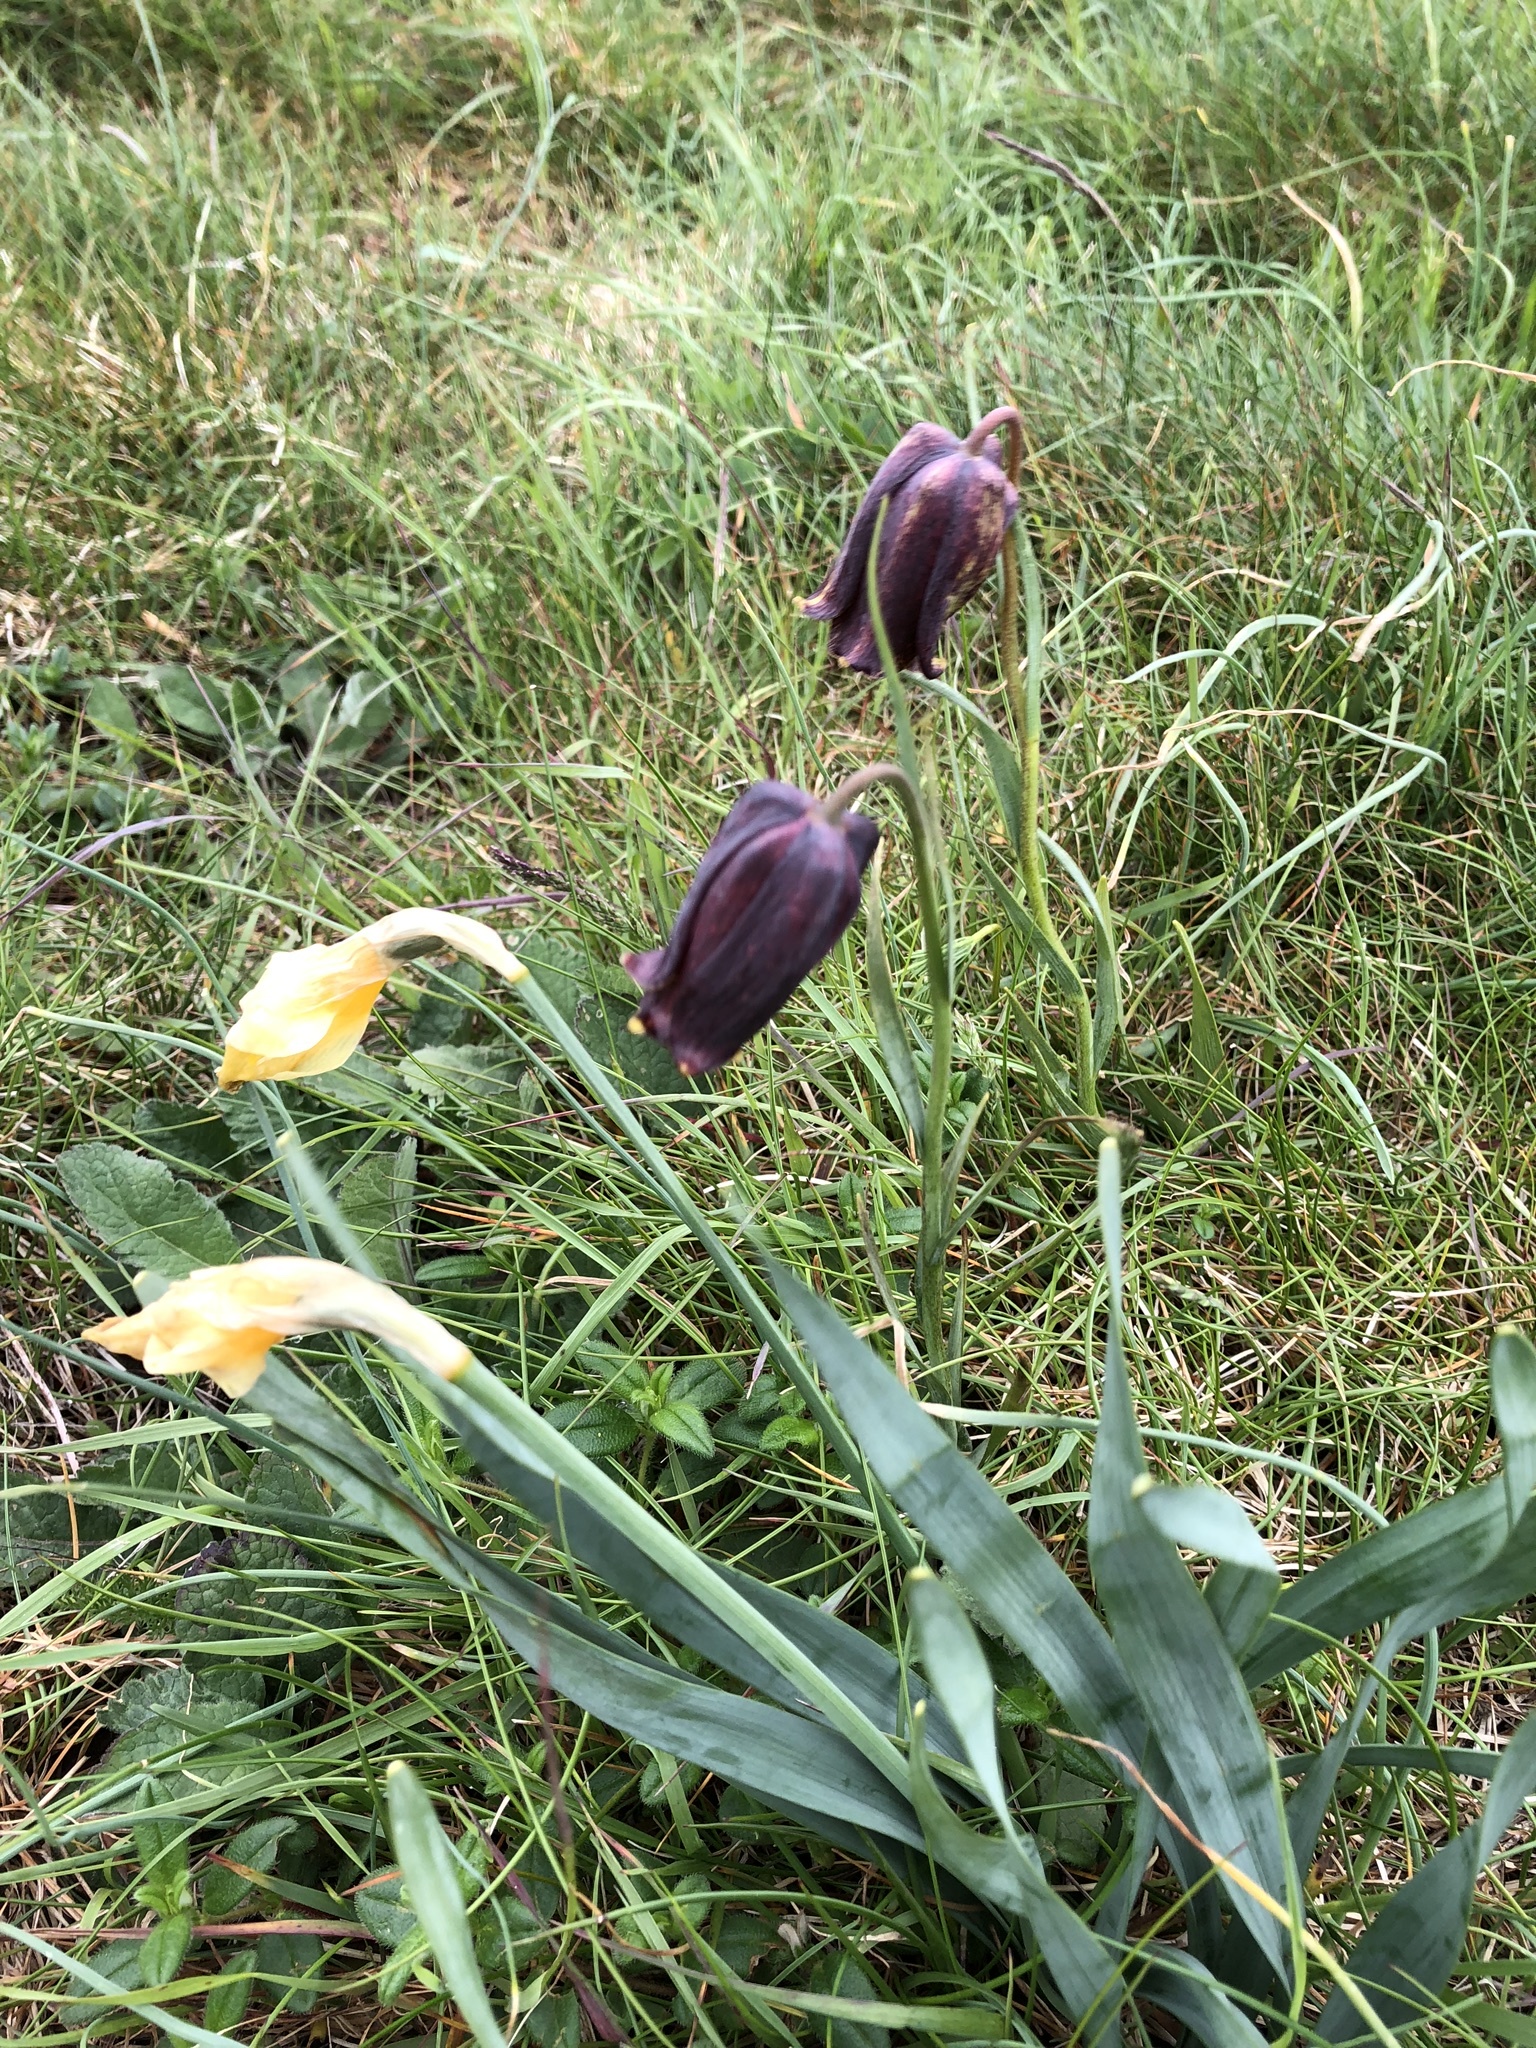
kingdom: Plantae
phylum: Tracheophyta
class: Liliopsida
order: Liliales
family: Liliaceae
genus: Fritillaria
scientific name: Fritillaria pyrenaica
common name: Pyrenean snake's-head
